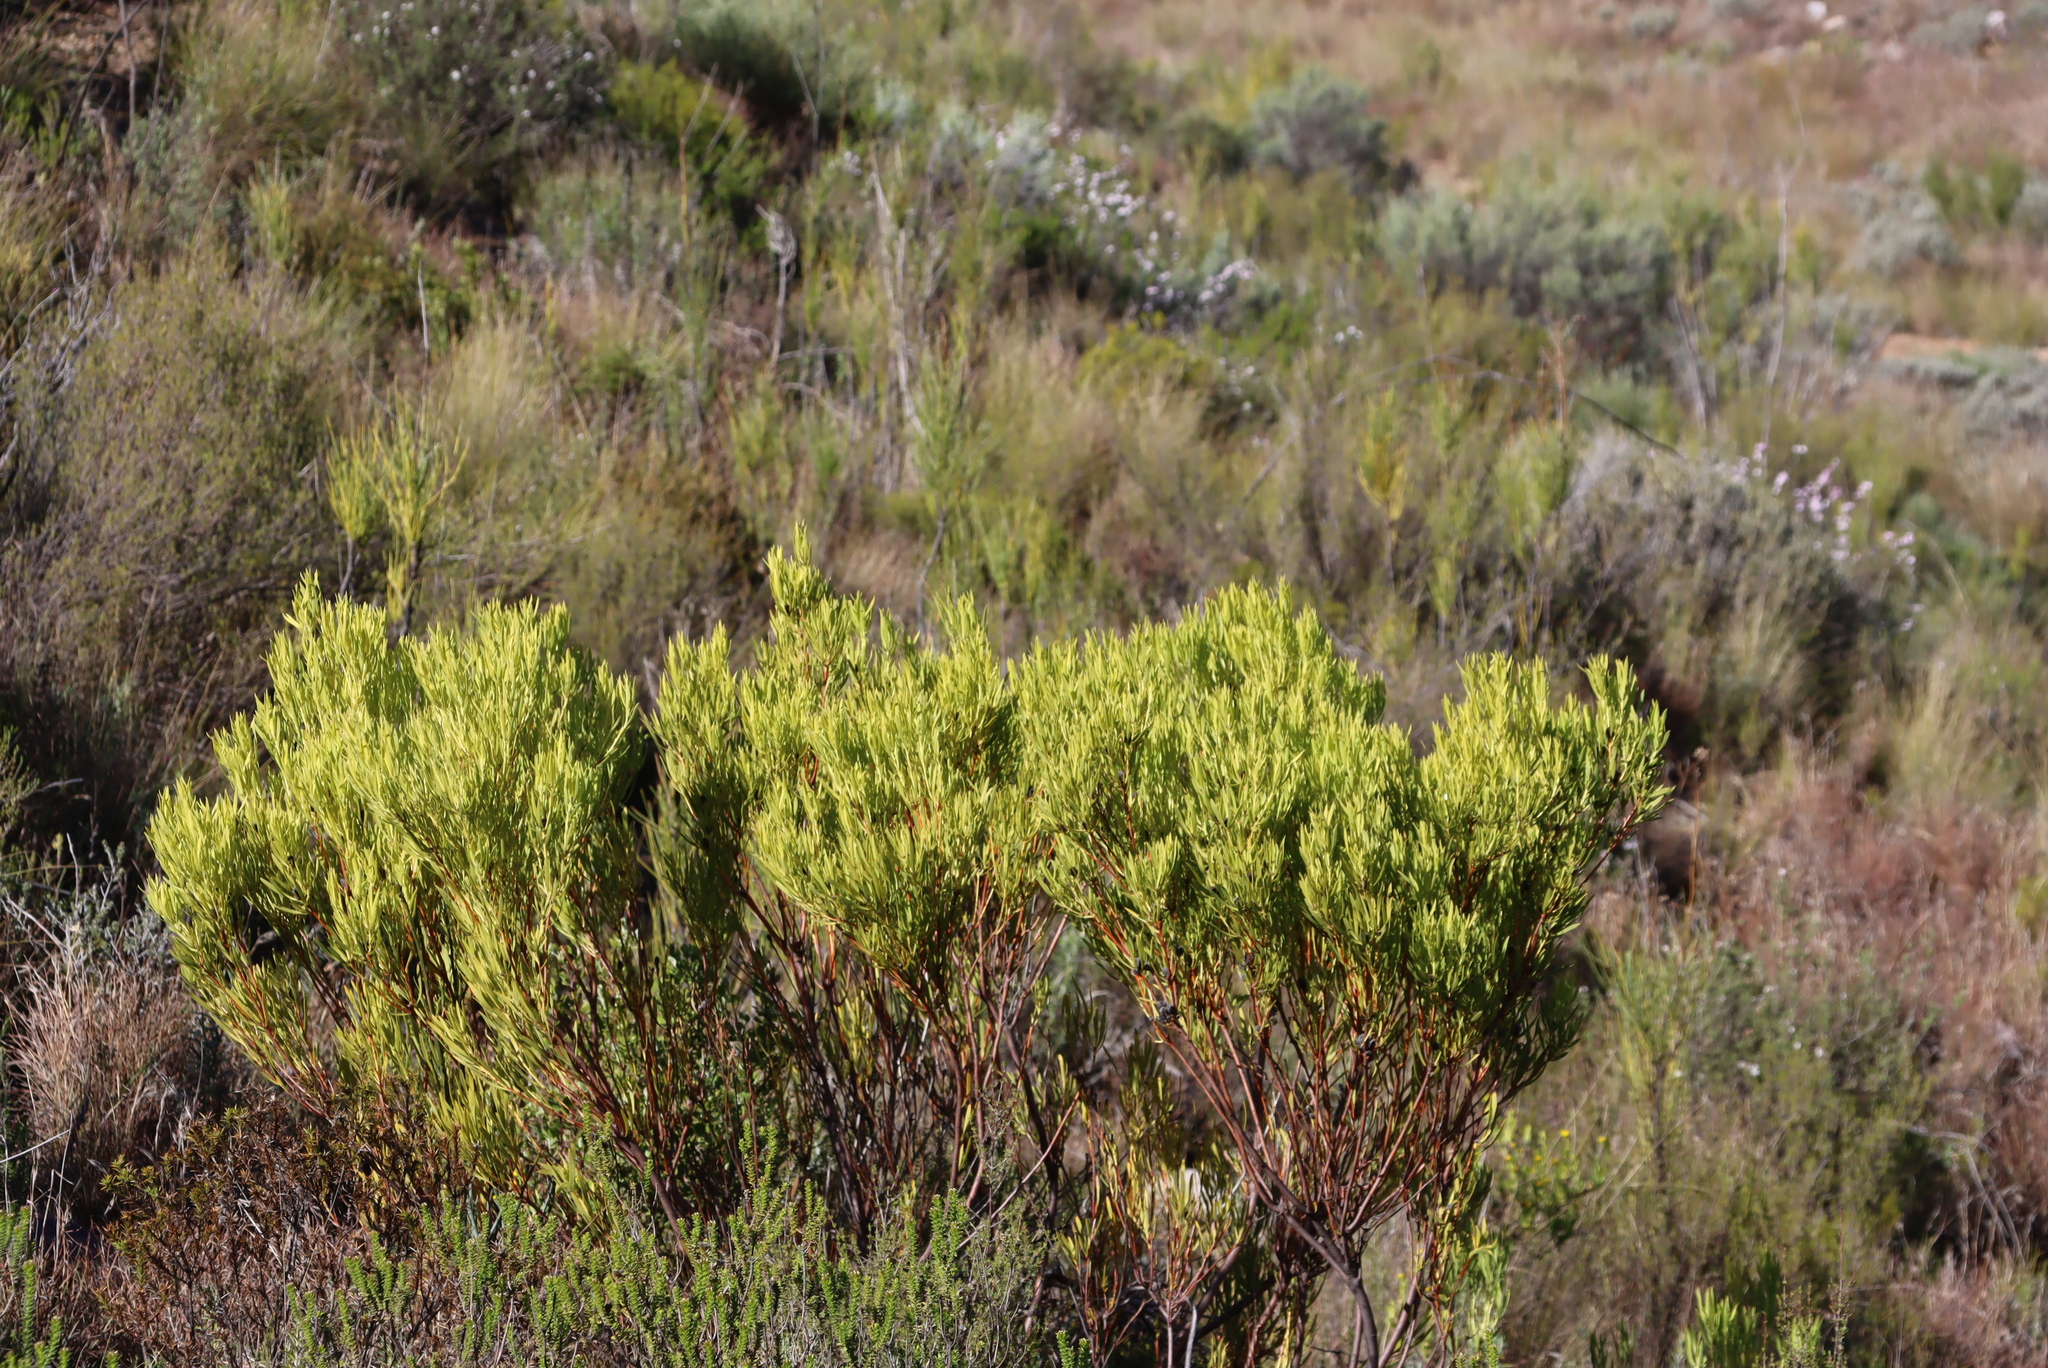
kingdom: Plantae
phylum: Tracheophyta
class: Magnoliopsida
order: Proteales
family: Proteaceae
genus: Leucadendron
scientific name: Leucadendron salignum
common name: Common sunshine conebush
